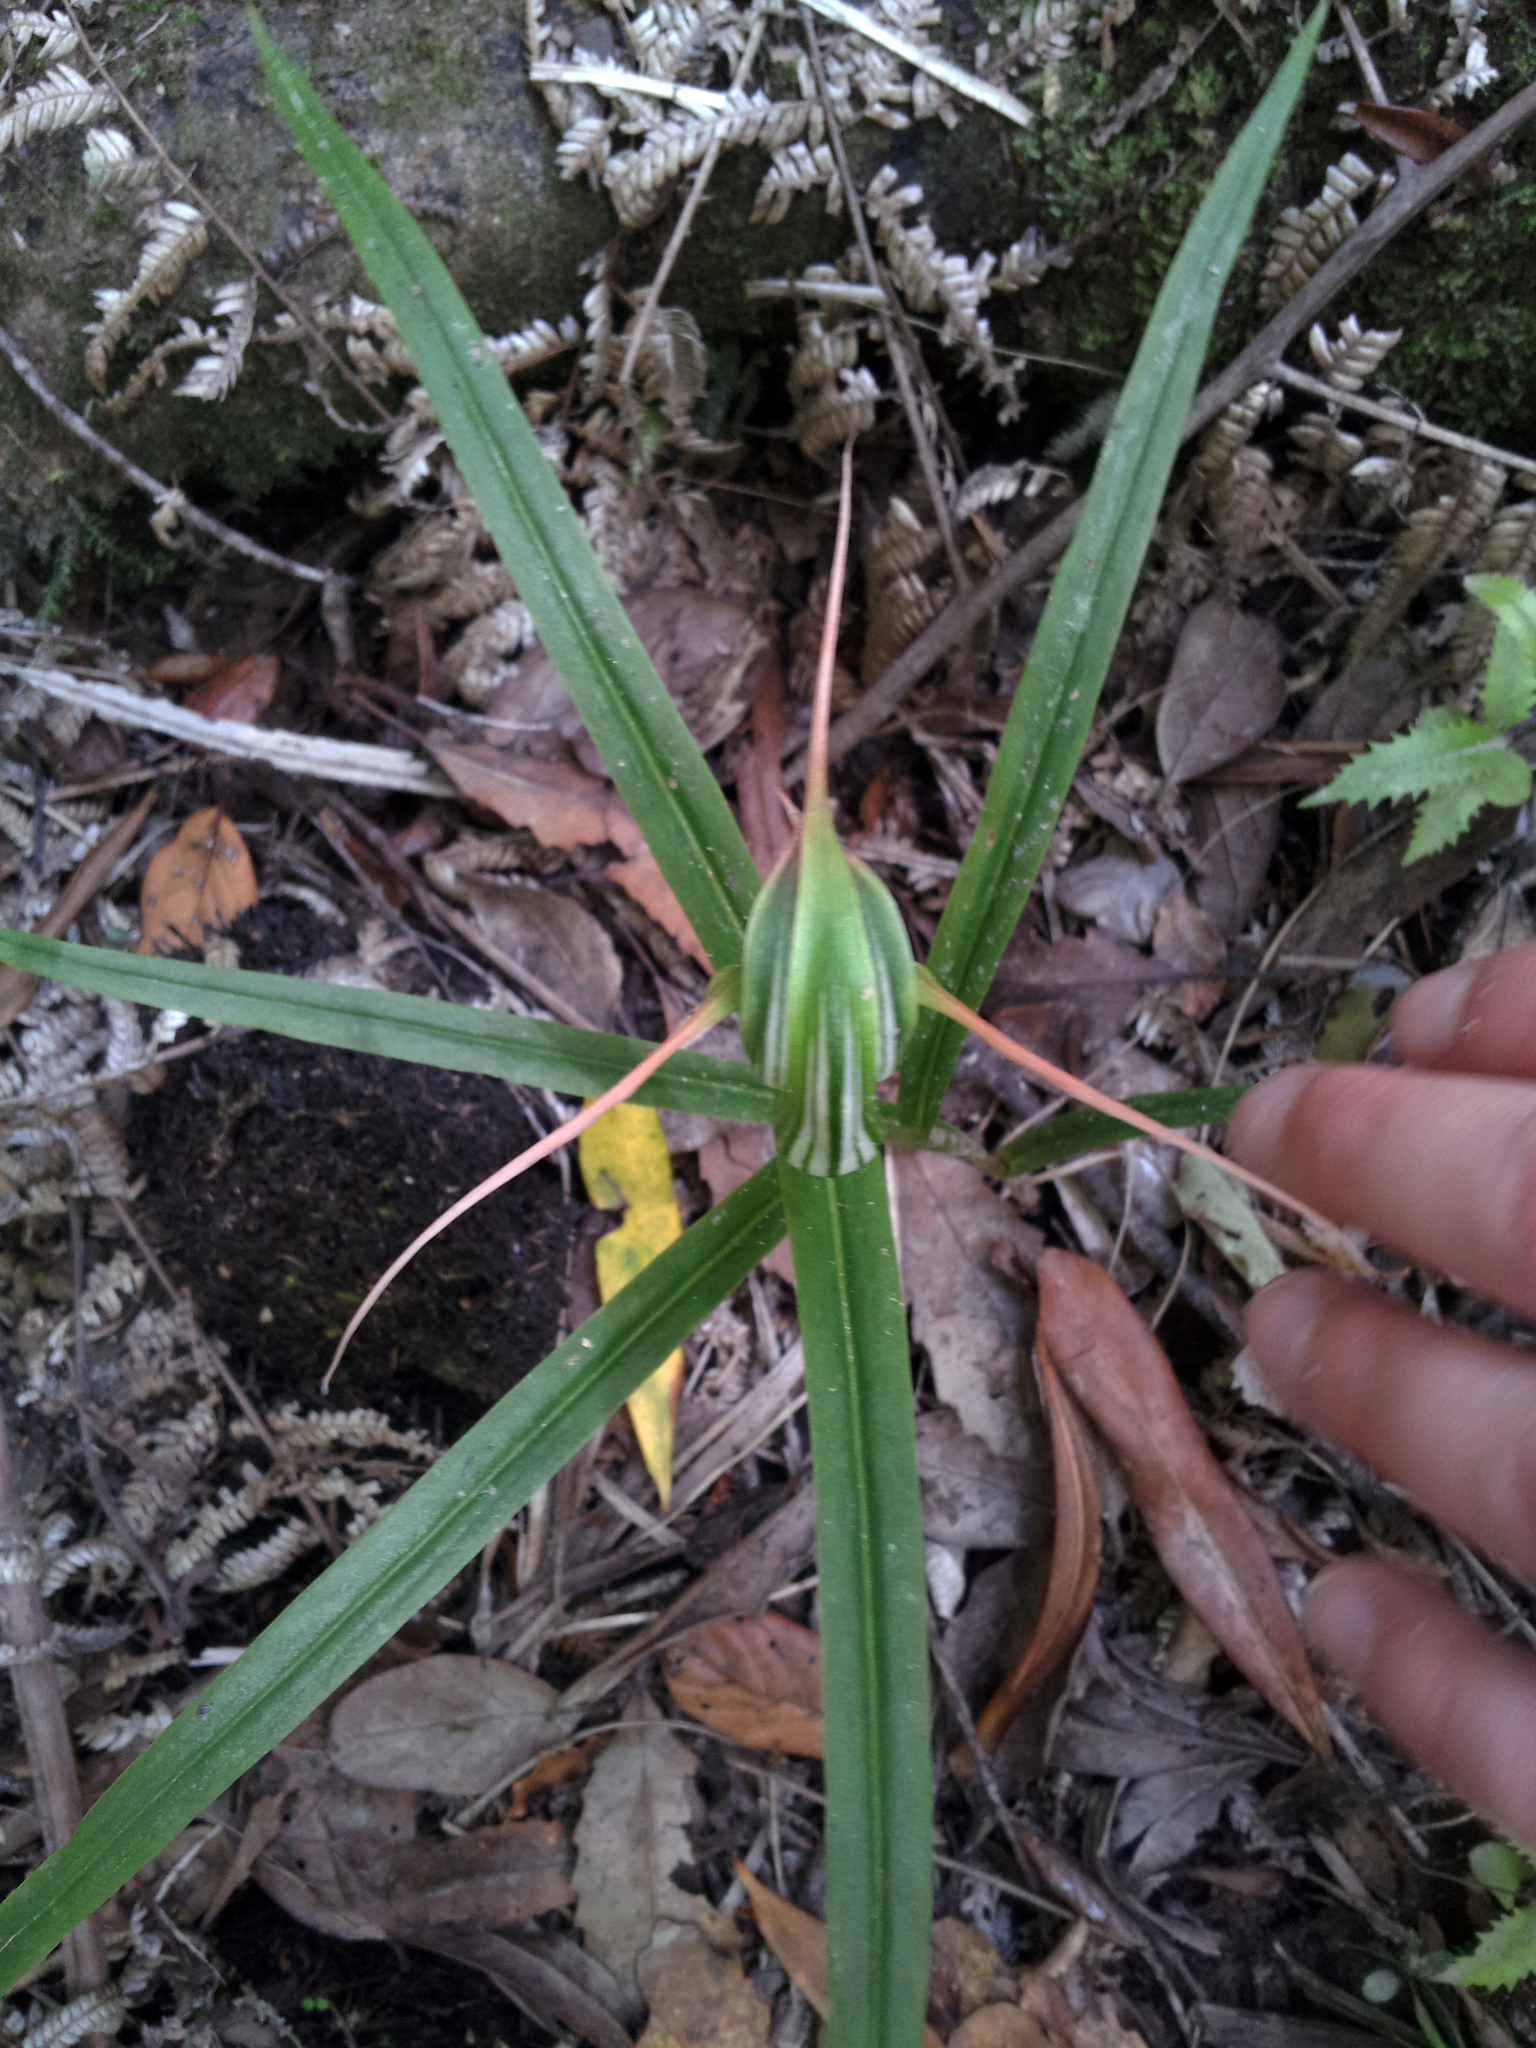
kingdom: Plantae
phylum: Tracheophyta
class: Liliopsida
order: Asparagales
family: Orchidaceae
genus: Pterostylis
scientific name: Pterostylis banksii
